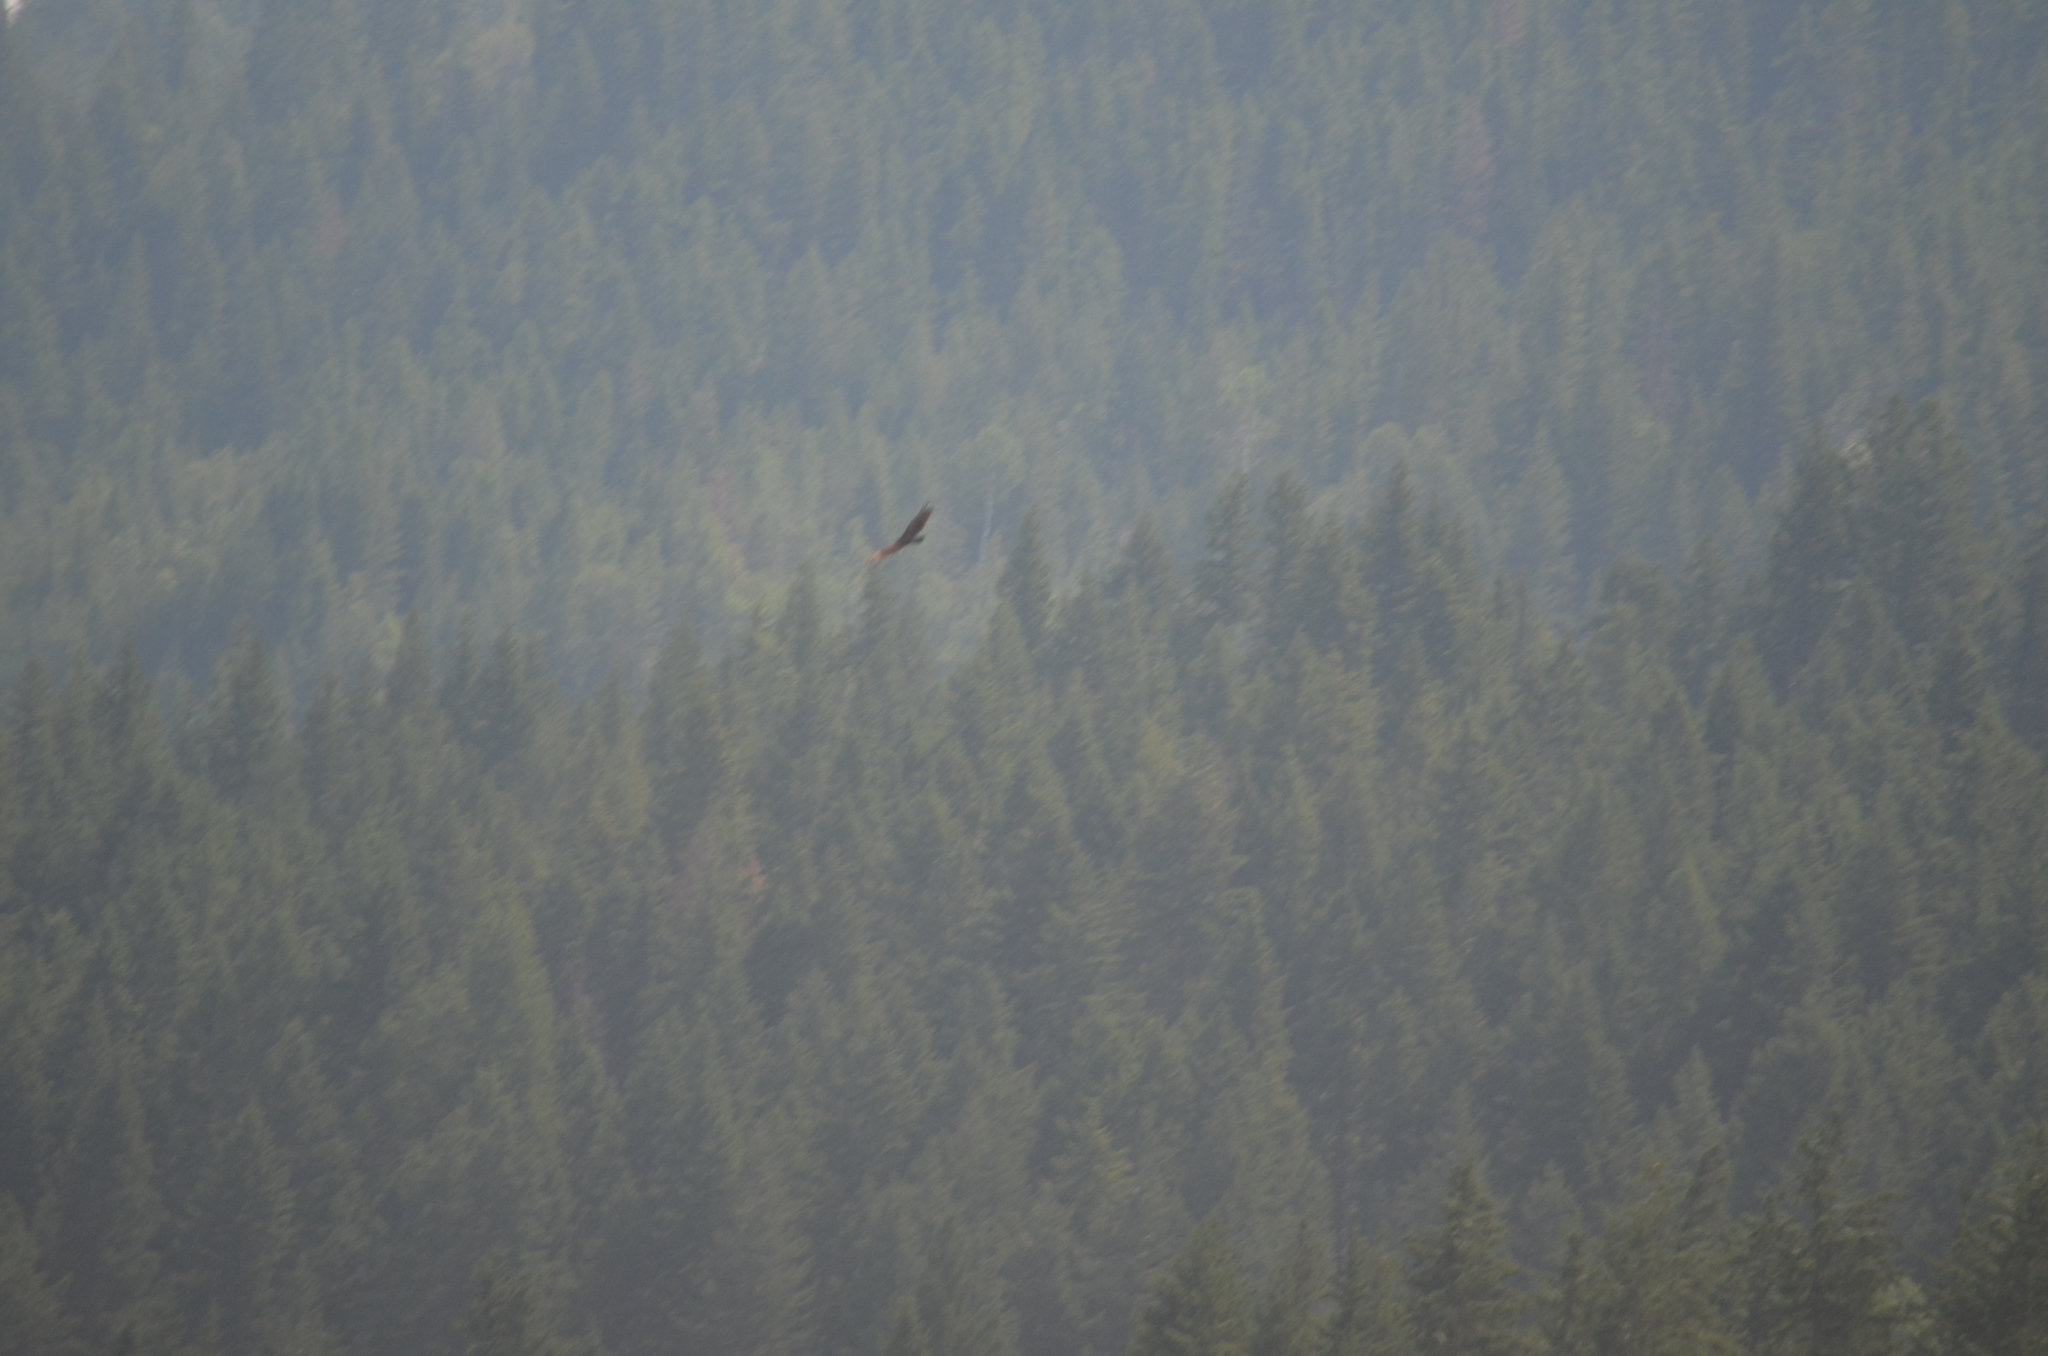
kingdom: Animalia
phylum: Chordata
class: Aves
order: Accipitriformes
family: Cathartidae
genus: Cathartes
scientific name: Cathartes aura
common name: Turkey vulture
